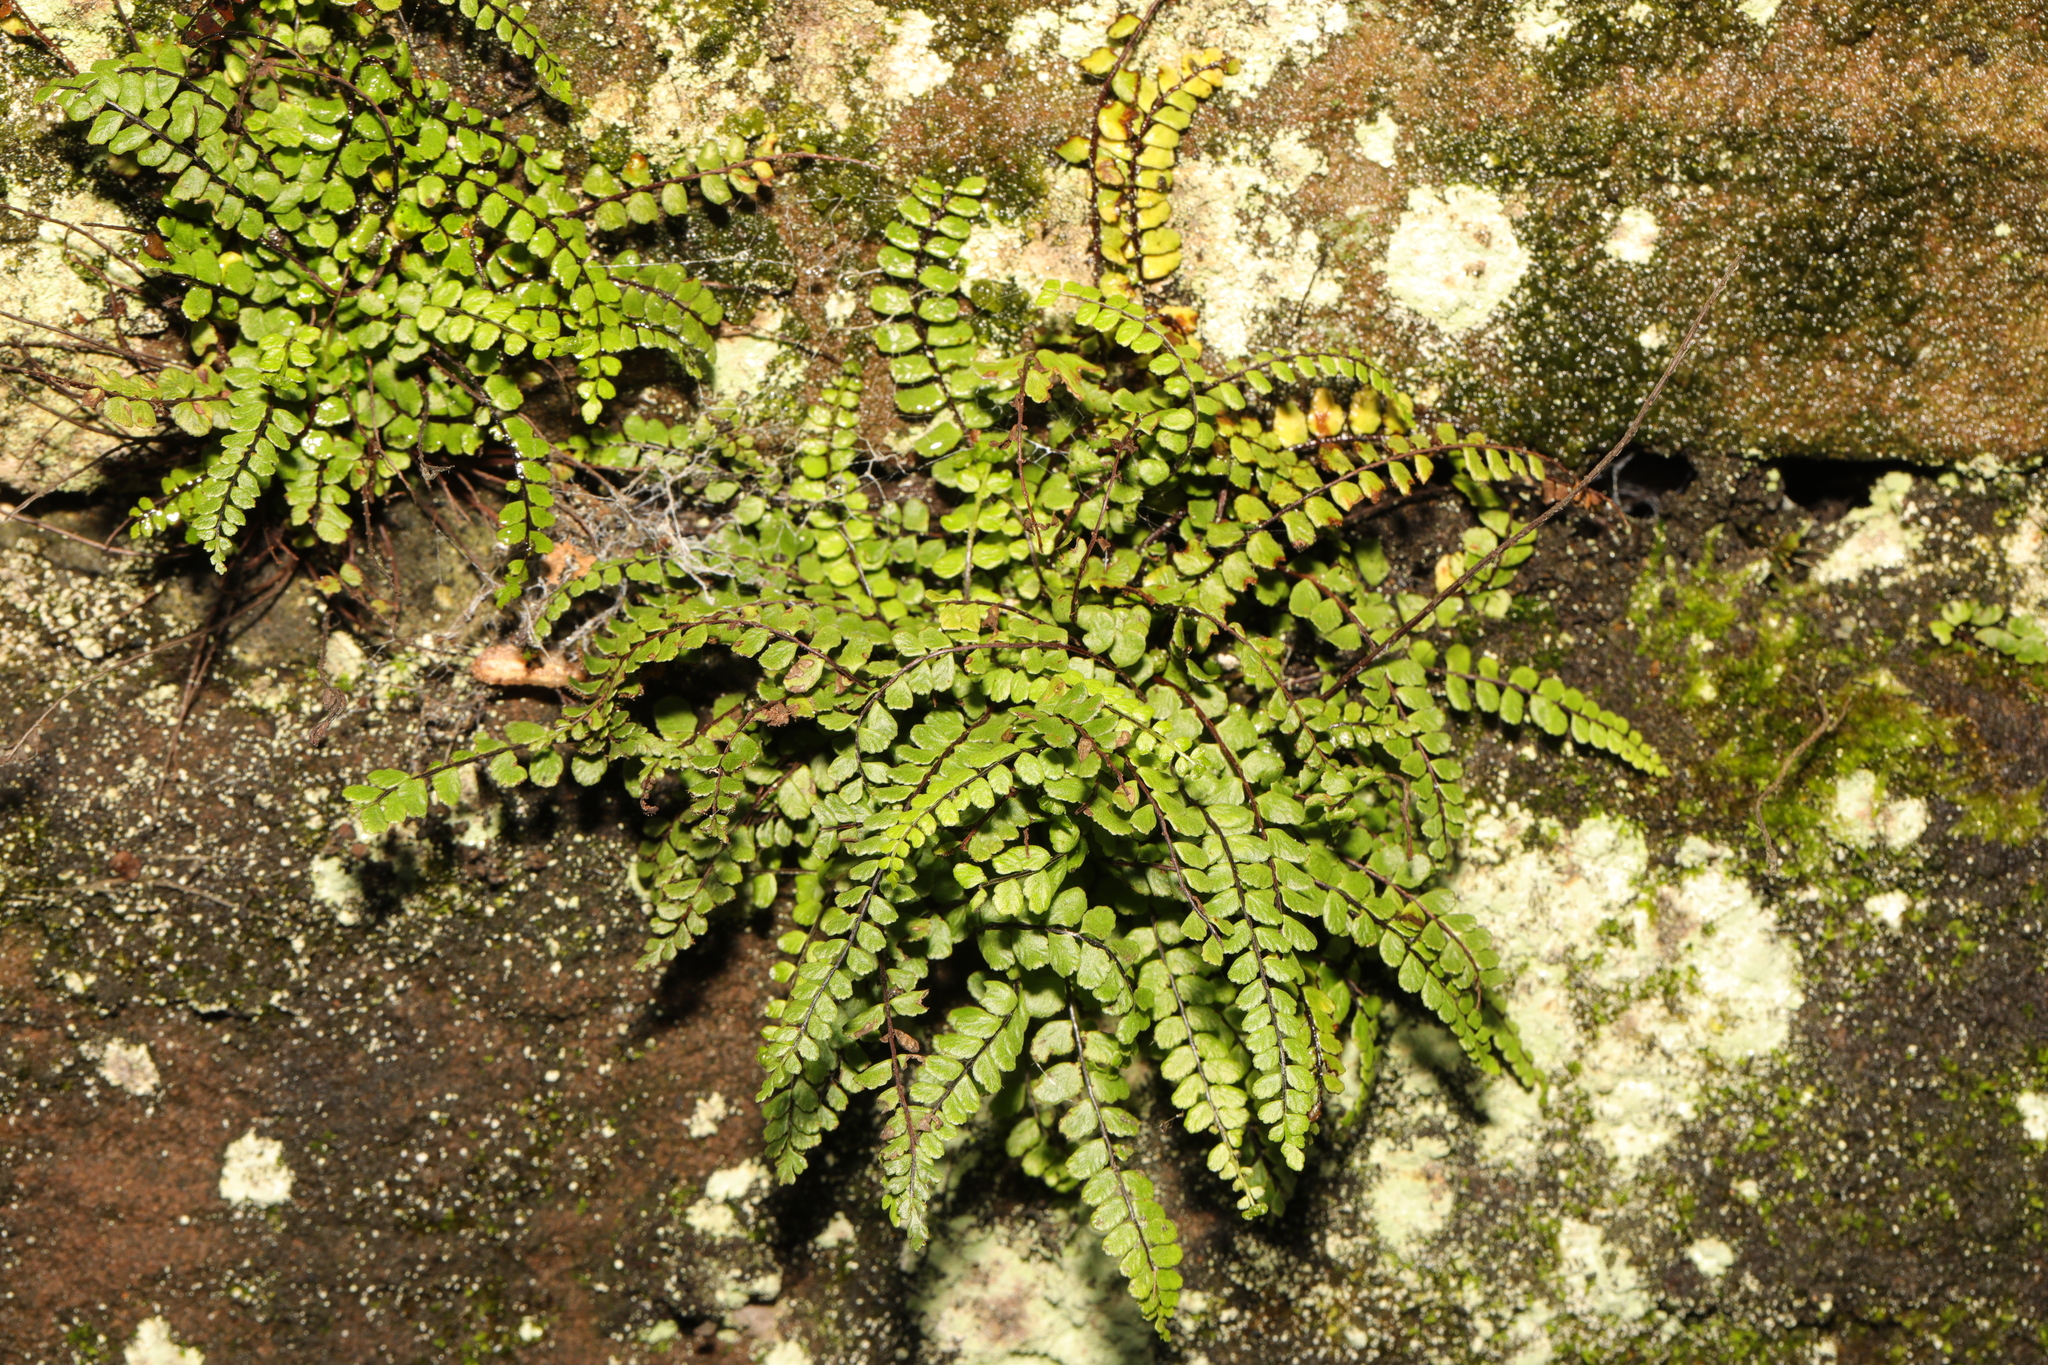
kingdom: Plantae
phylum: Tracheophyta
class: Polypodiopsida
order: Polypodiales
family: Aspleniaceae
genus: Asplenium
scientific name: Asplenium trichomanes
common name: Maidenhair spleenwort
